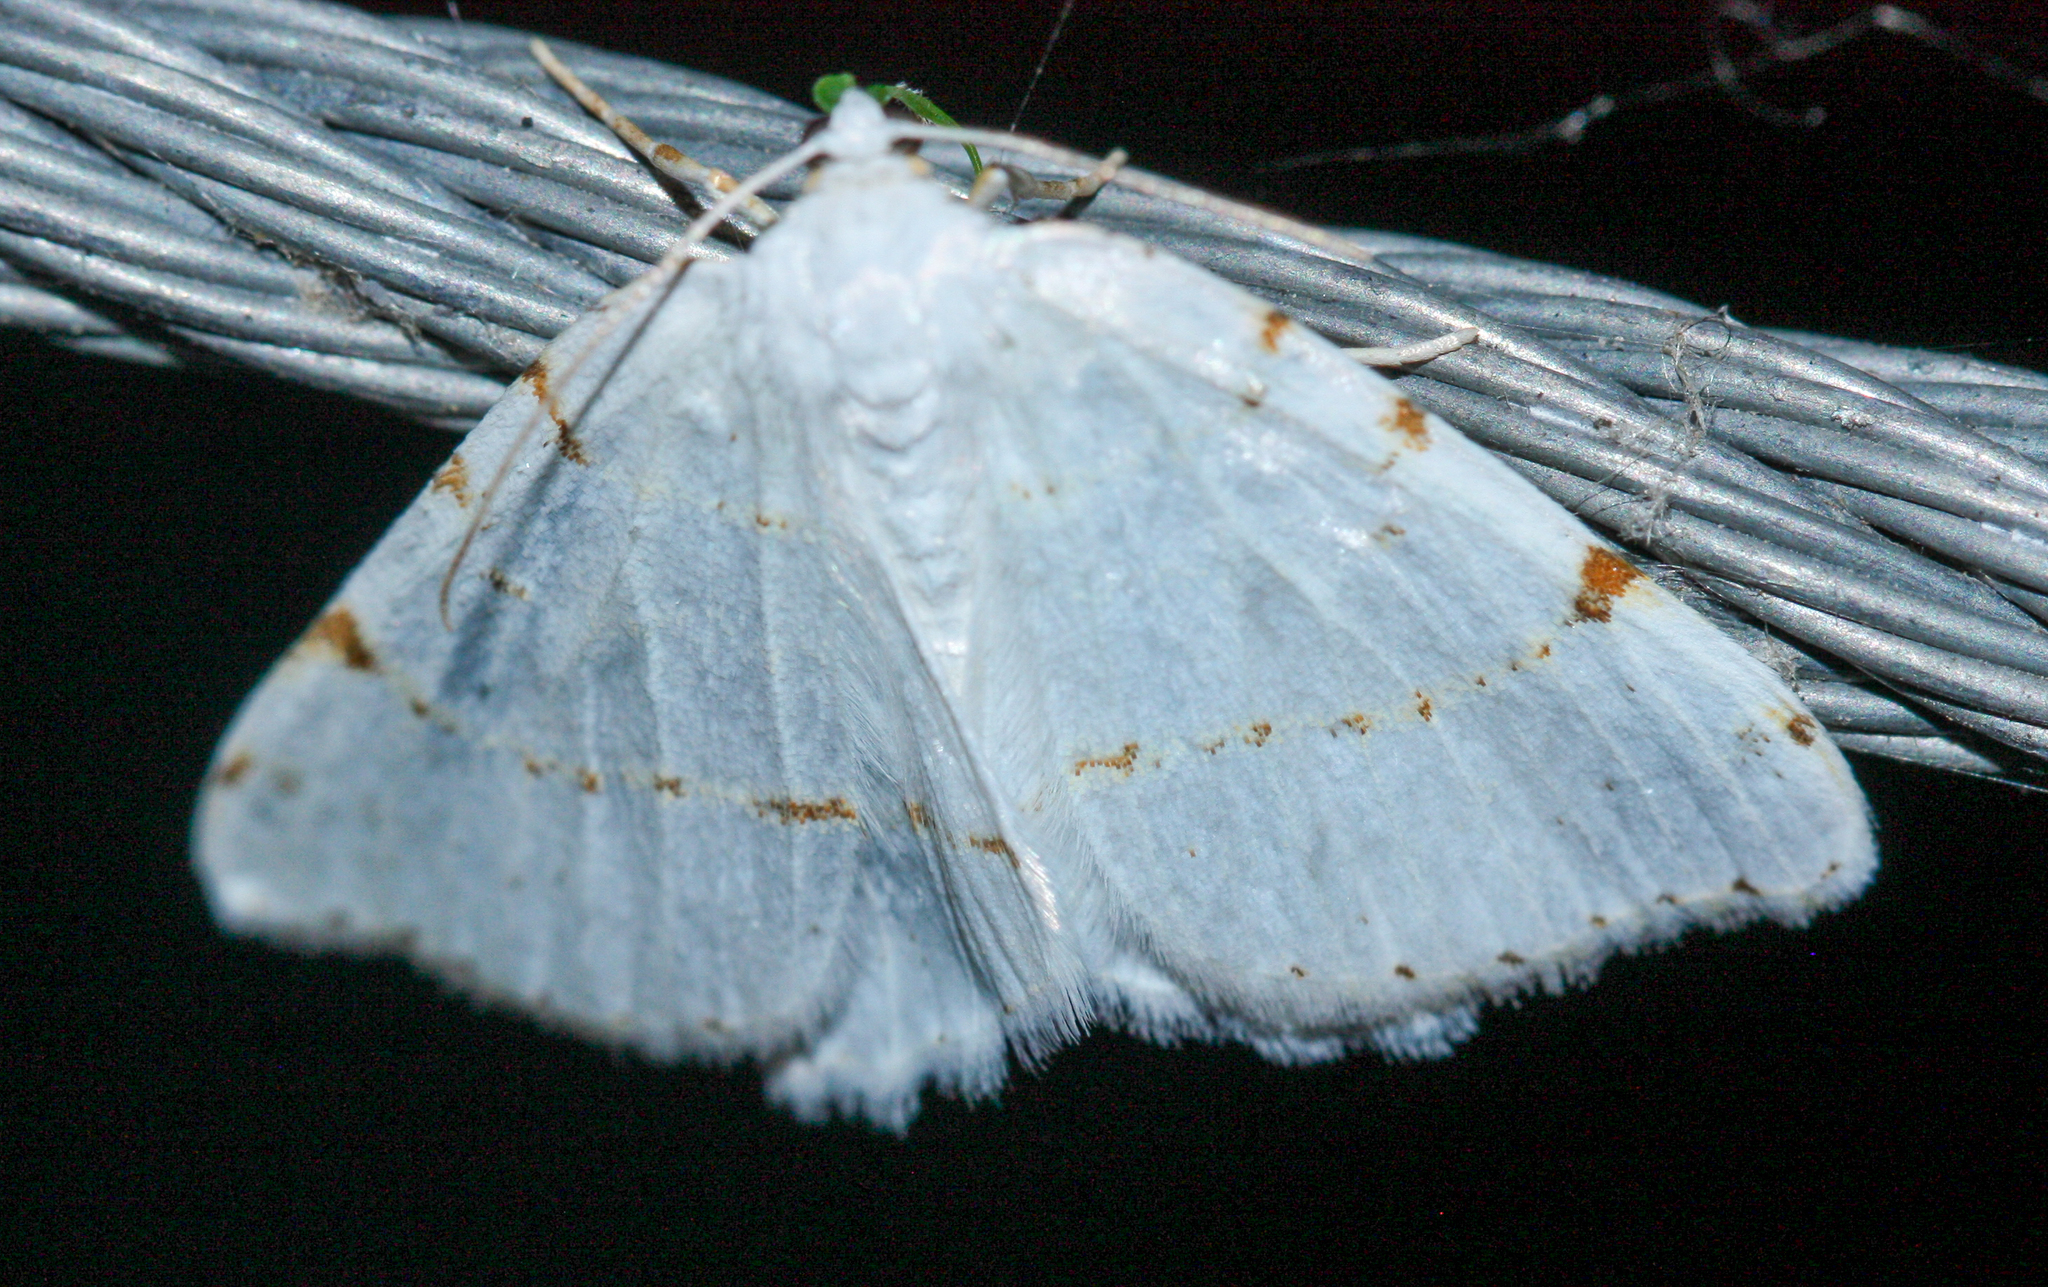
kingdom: Animalia
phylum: Arthropoda
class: Insecta
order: Lepidoptera
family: Geometridae
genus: Macaria
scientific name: Macaria pustularia
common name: Lesser maple spanworm moth
